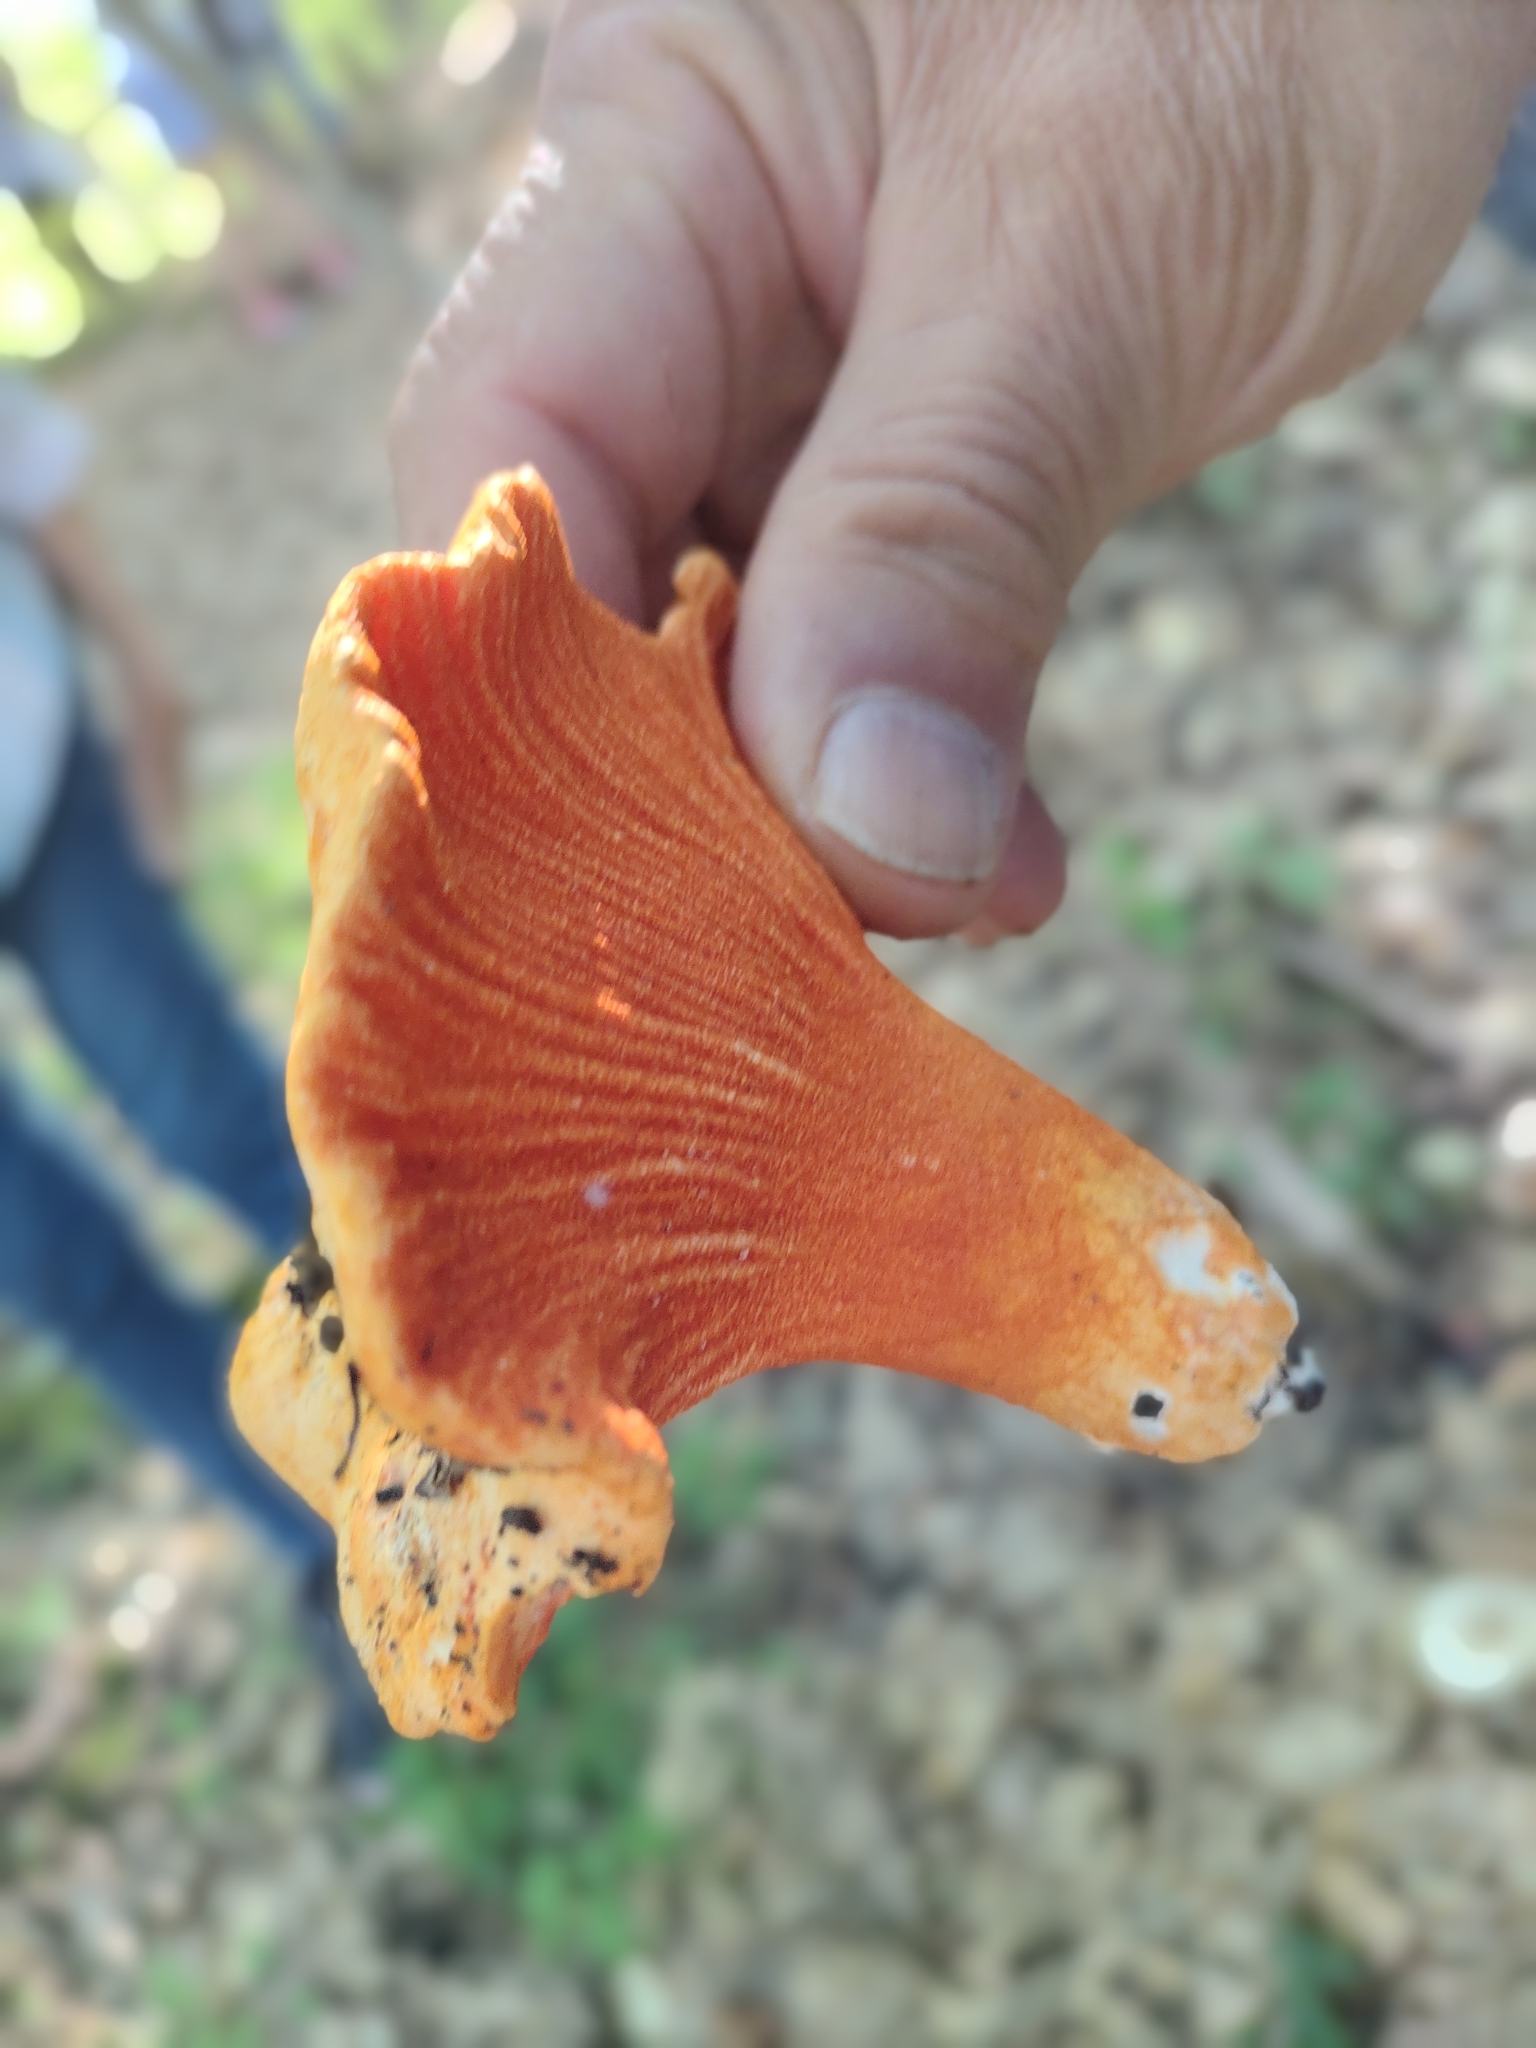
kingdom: Fungi
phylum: Ascomycota
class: Sordariomycetes
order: Hypocreales
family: Hypocreaceae
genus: Hypomyces
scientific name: Hypomyces lactifluorum
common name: Lobster mushroom
